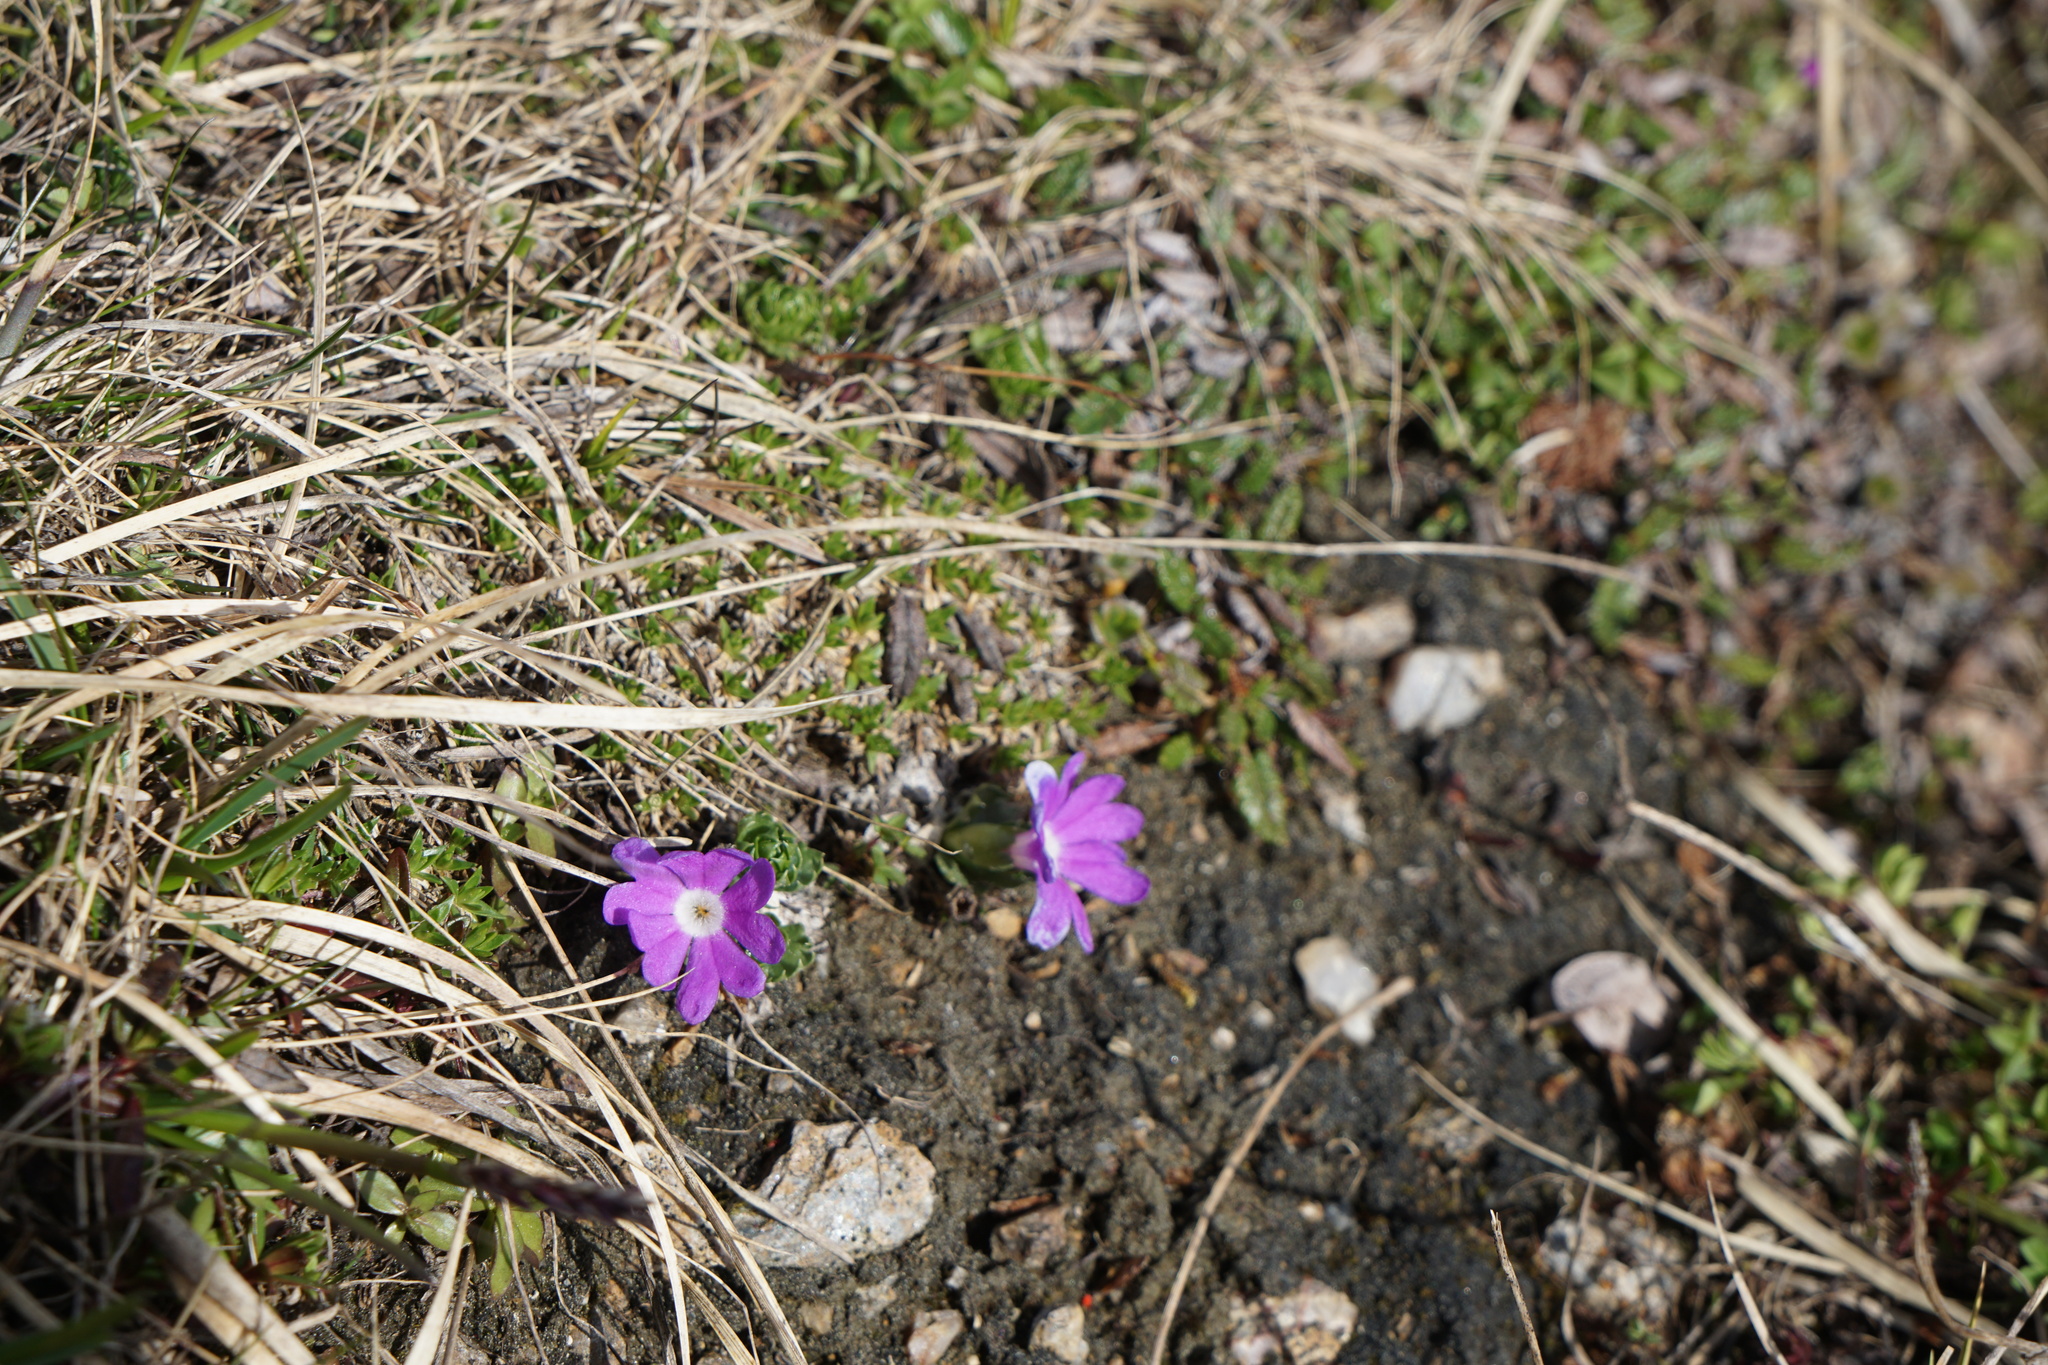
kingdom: Plantae
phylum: Tracheophyta
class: Magnoliopsida
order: Ericales
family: Primulaceae
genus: Primula
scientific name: Primula minima
